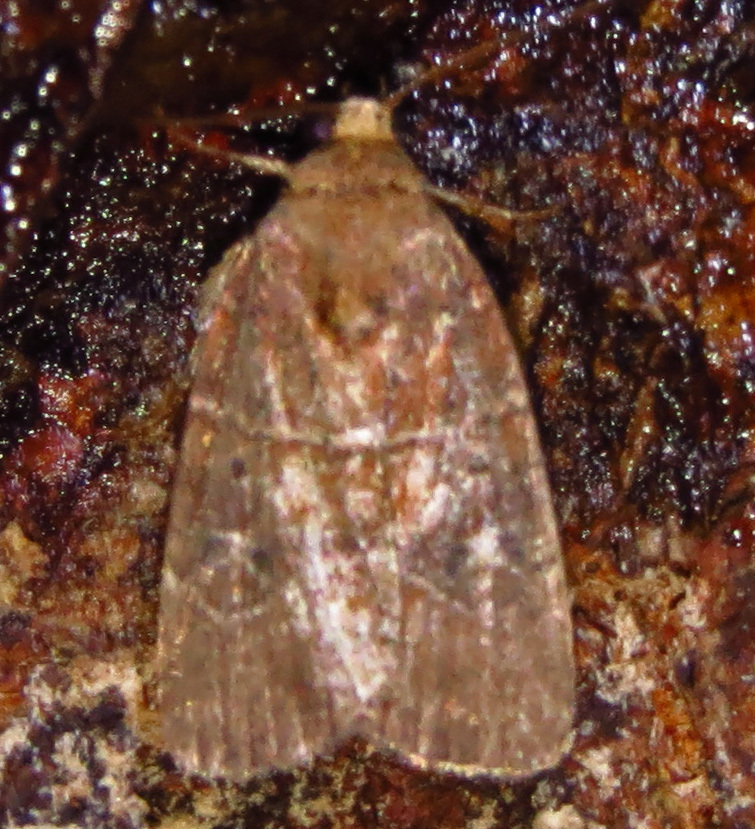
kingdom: Animalia
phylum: Arthropoda
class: Insecta
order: Lepidoptera
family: Noctuidae
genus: Elaphria
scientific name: Elaphria grata
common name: Grateful midget moth
